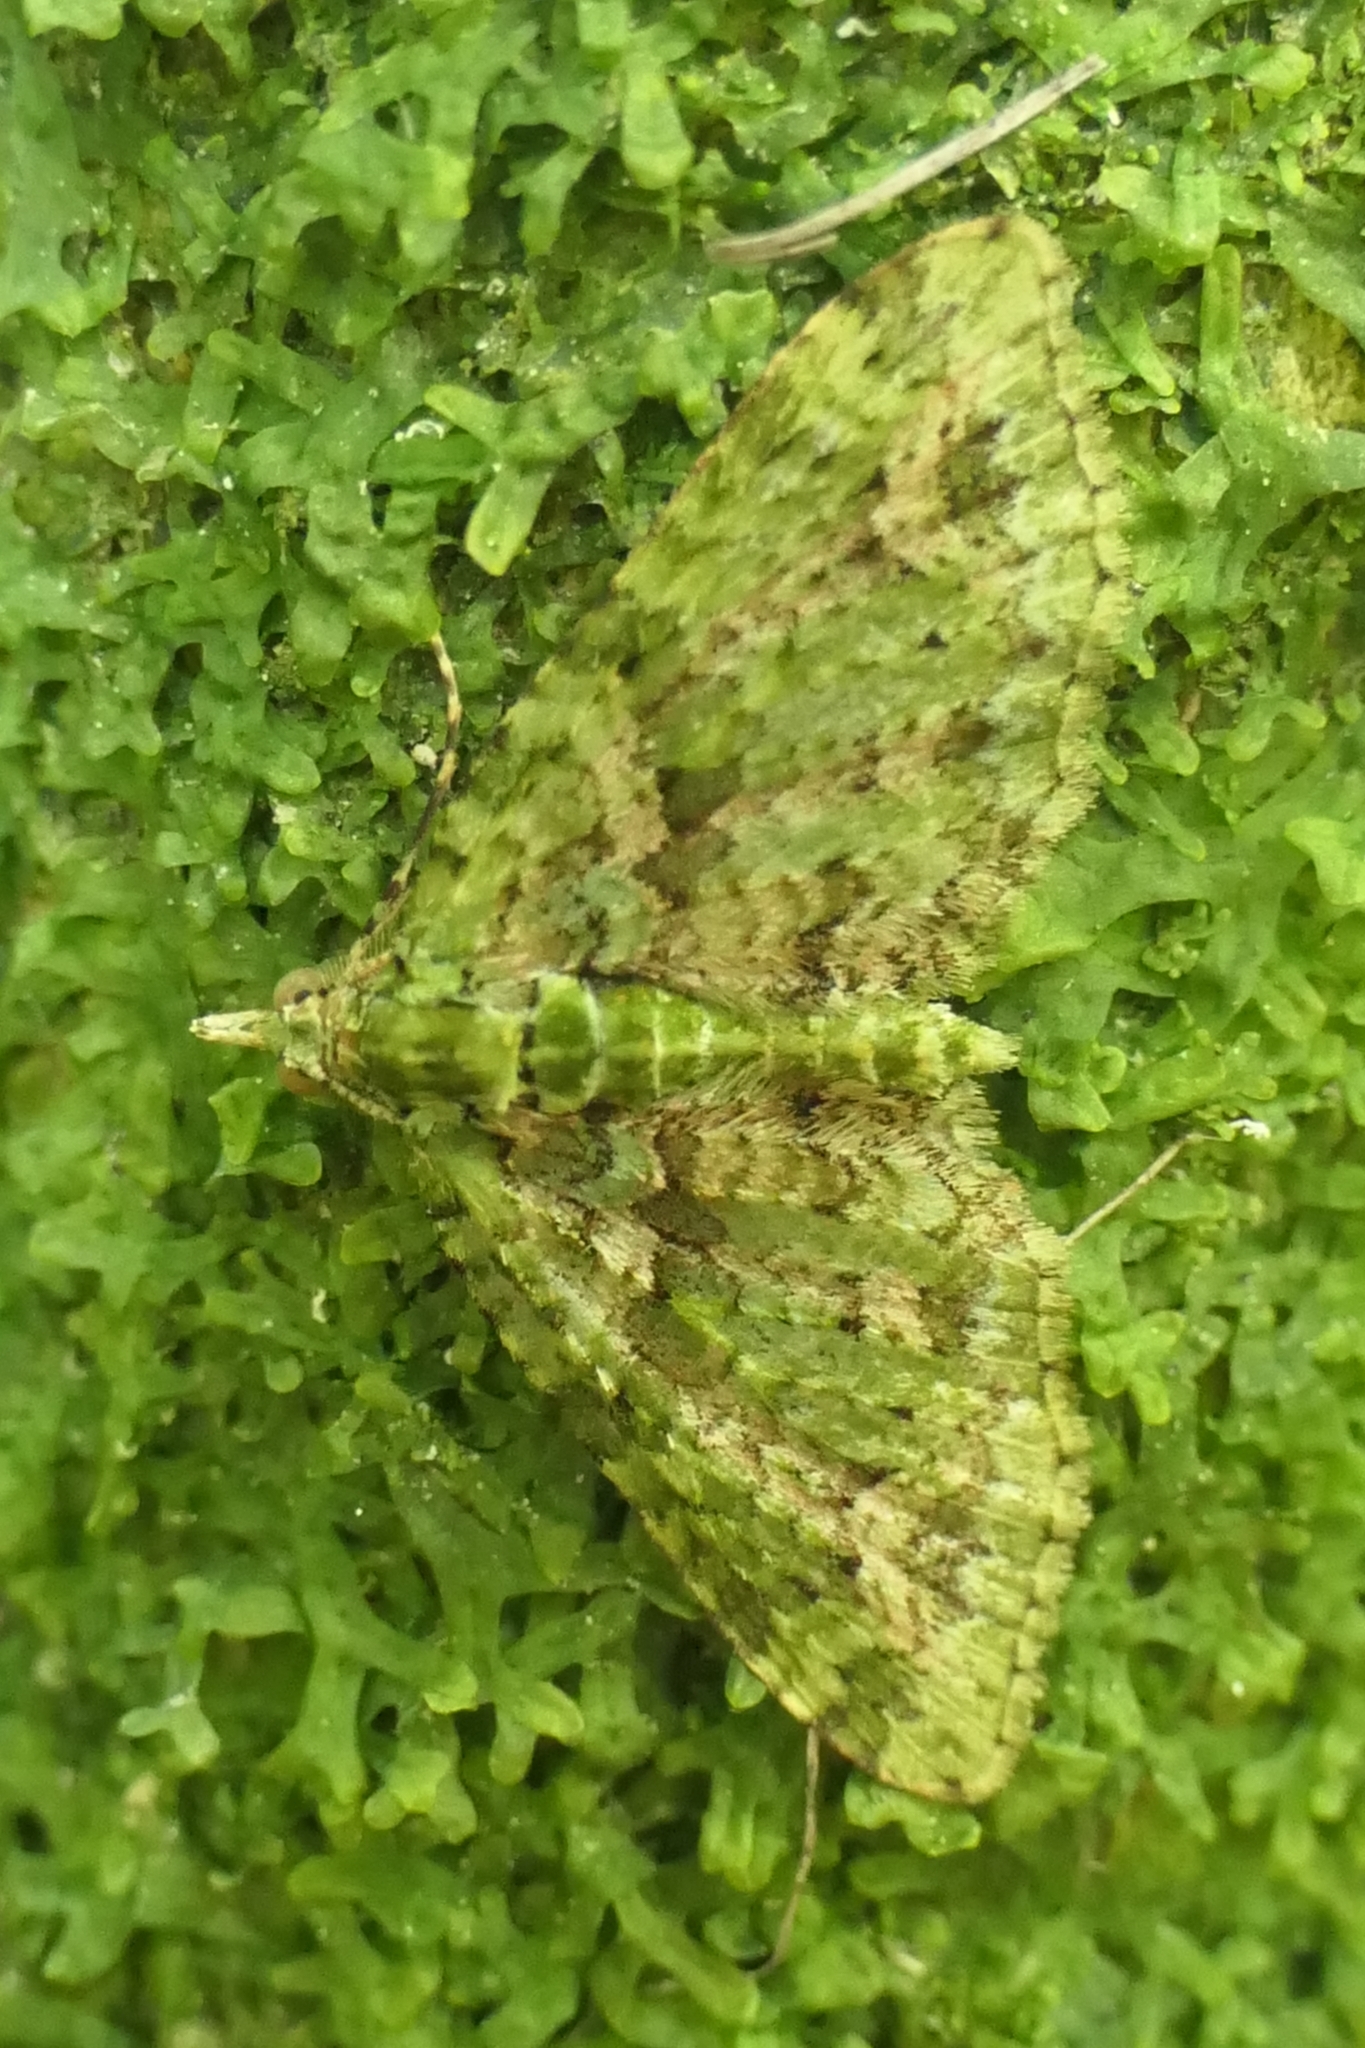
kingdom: Animalia
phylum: Arthropoda
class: Insecta
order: Lepidoptera
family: Geometridae
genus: Pasiphila
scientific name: Pasiphila muscosata
